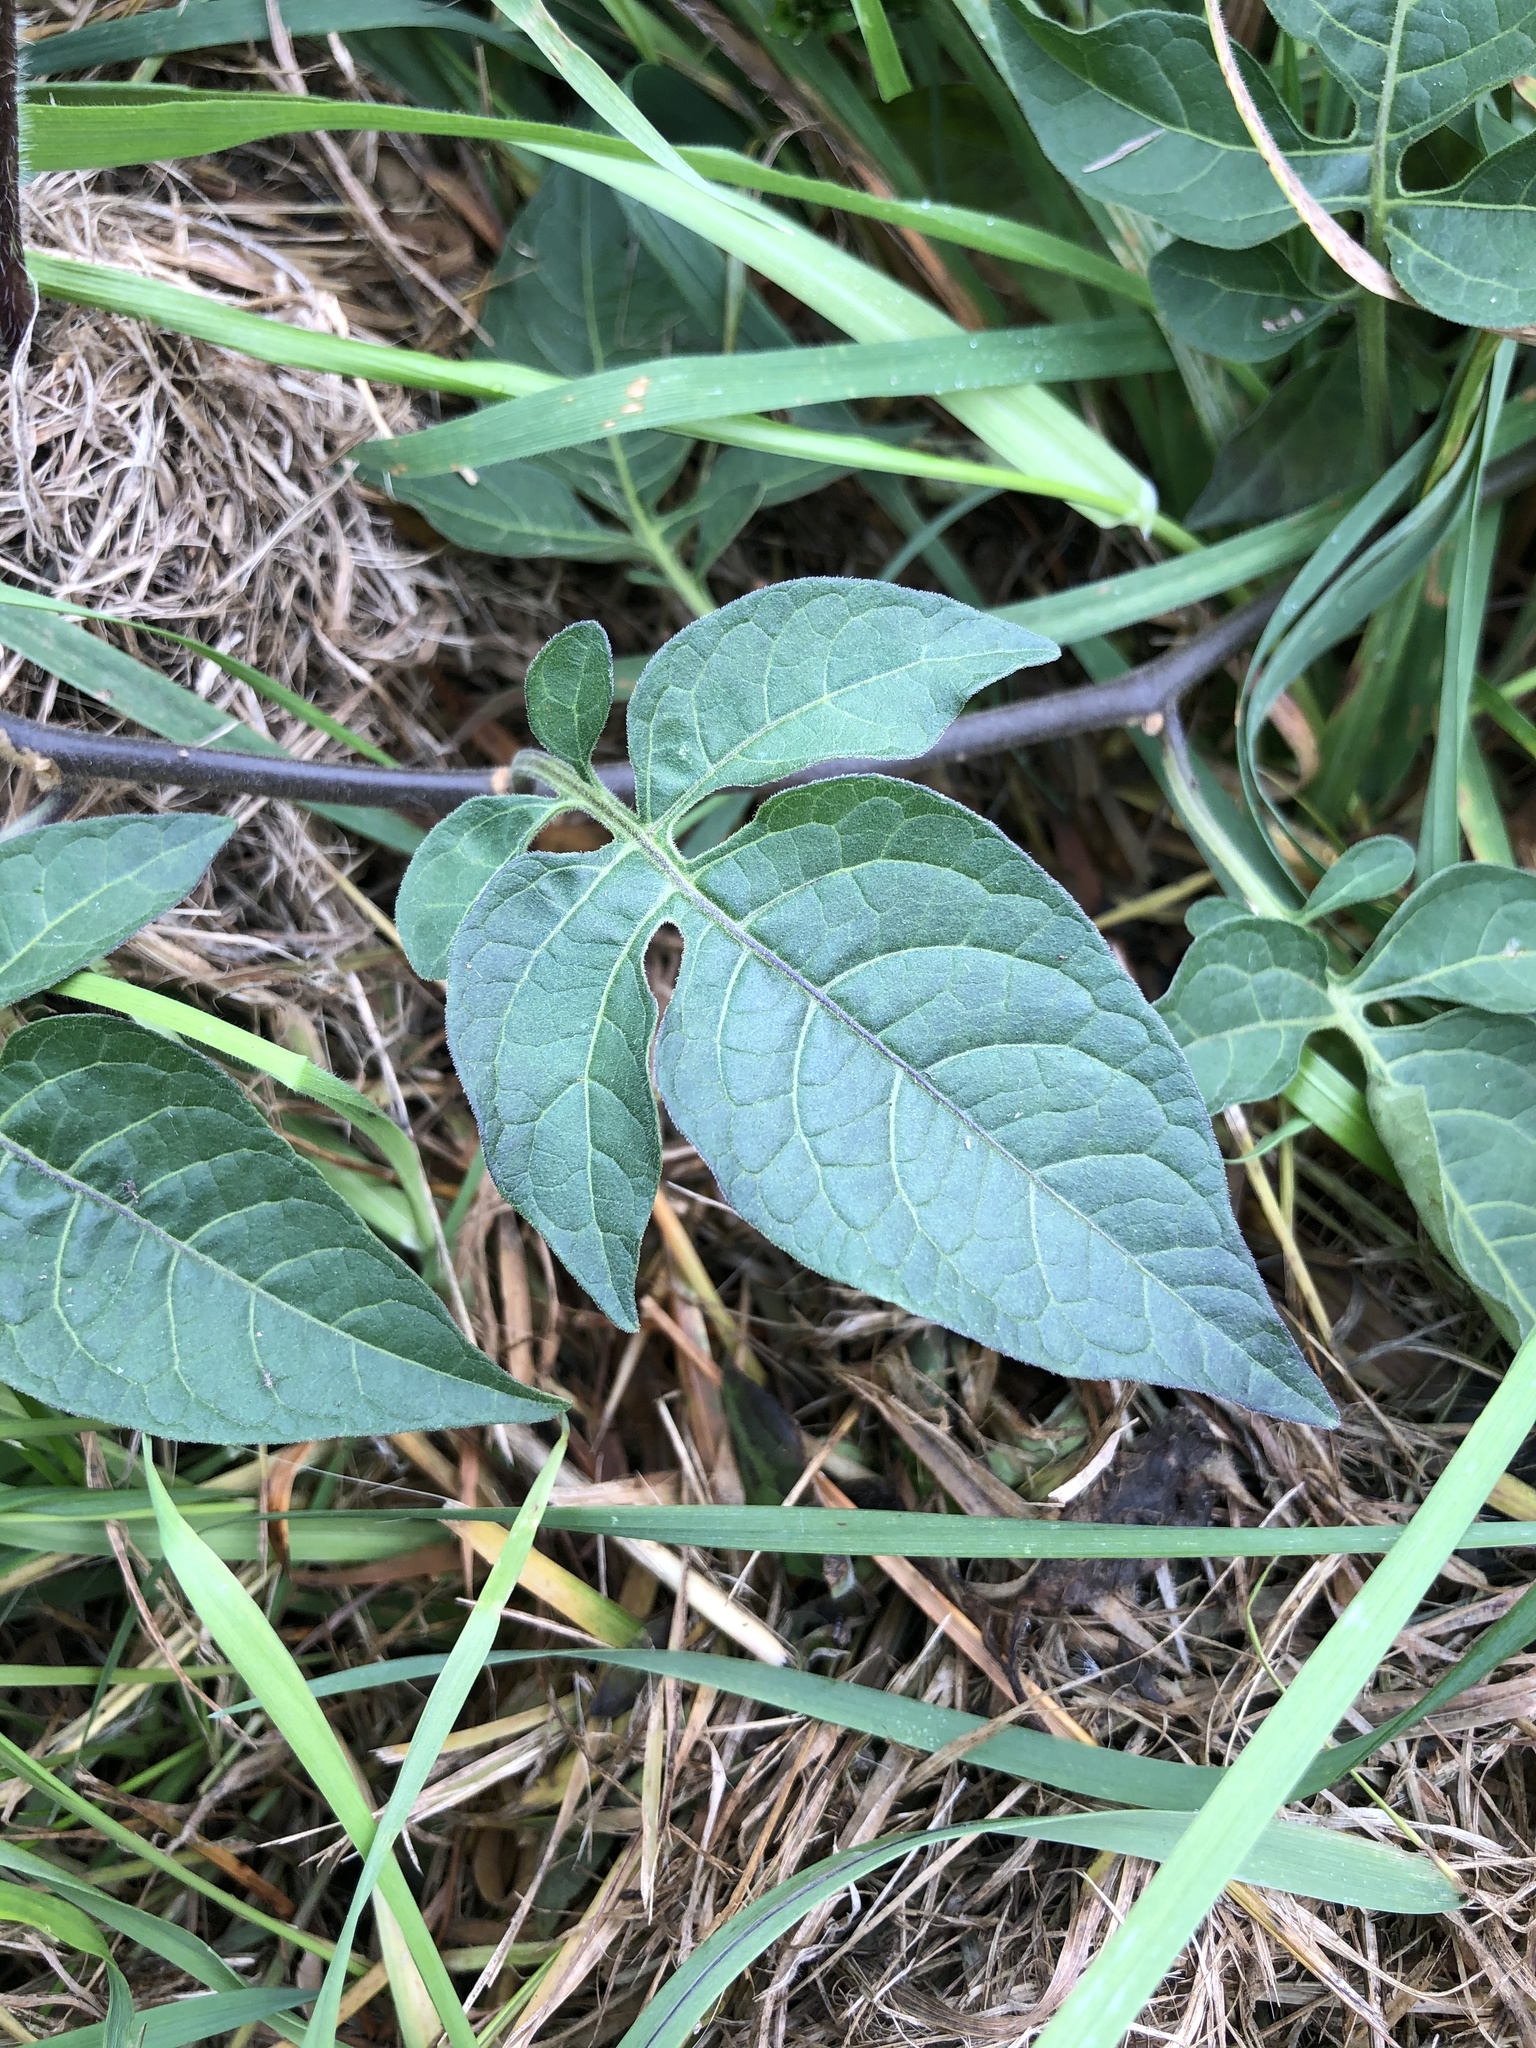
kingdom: Plantae
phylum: Tracheophyta
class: Magnoliopsida
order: Solanales
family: Solanaceae
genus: Solanum
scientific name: Solanum dulcamara
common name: Climbing nightshade
